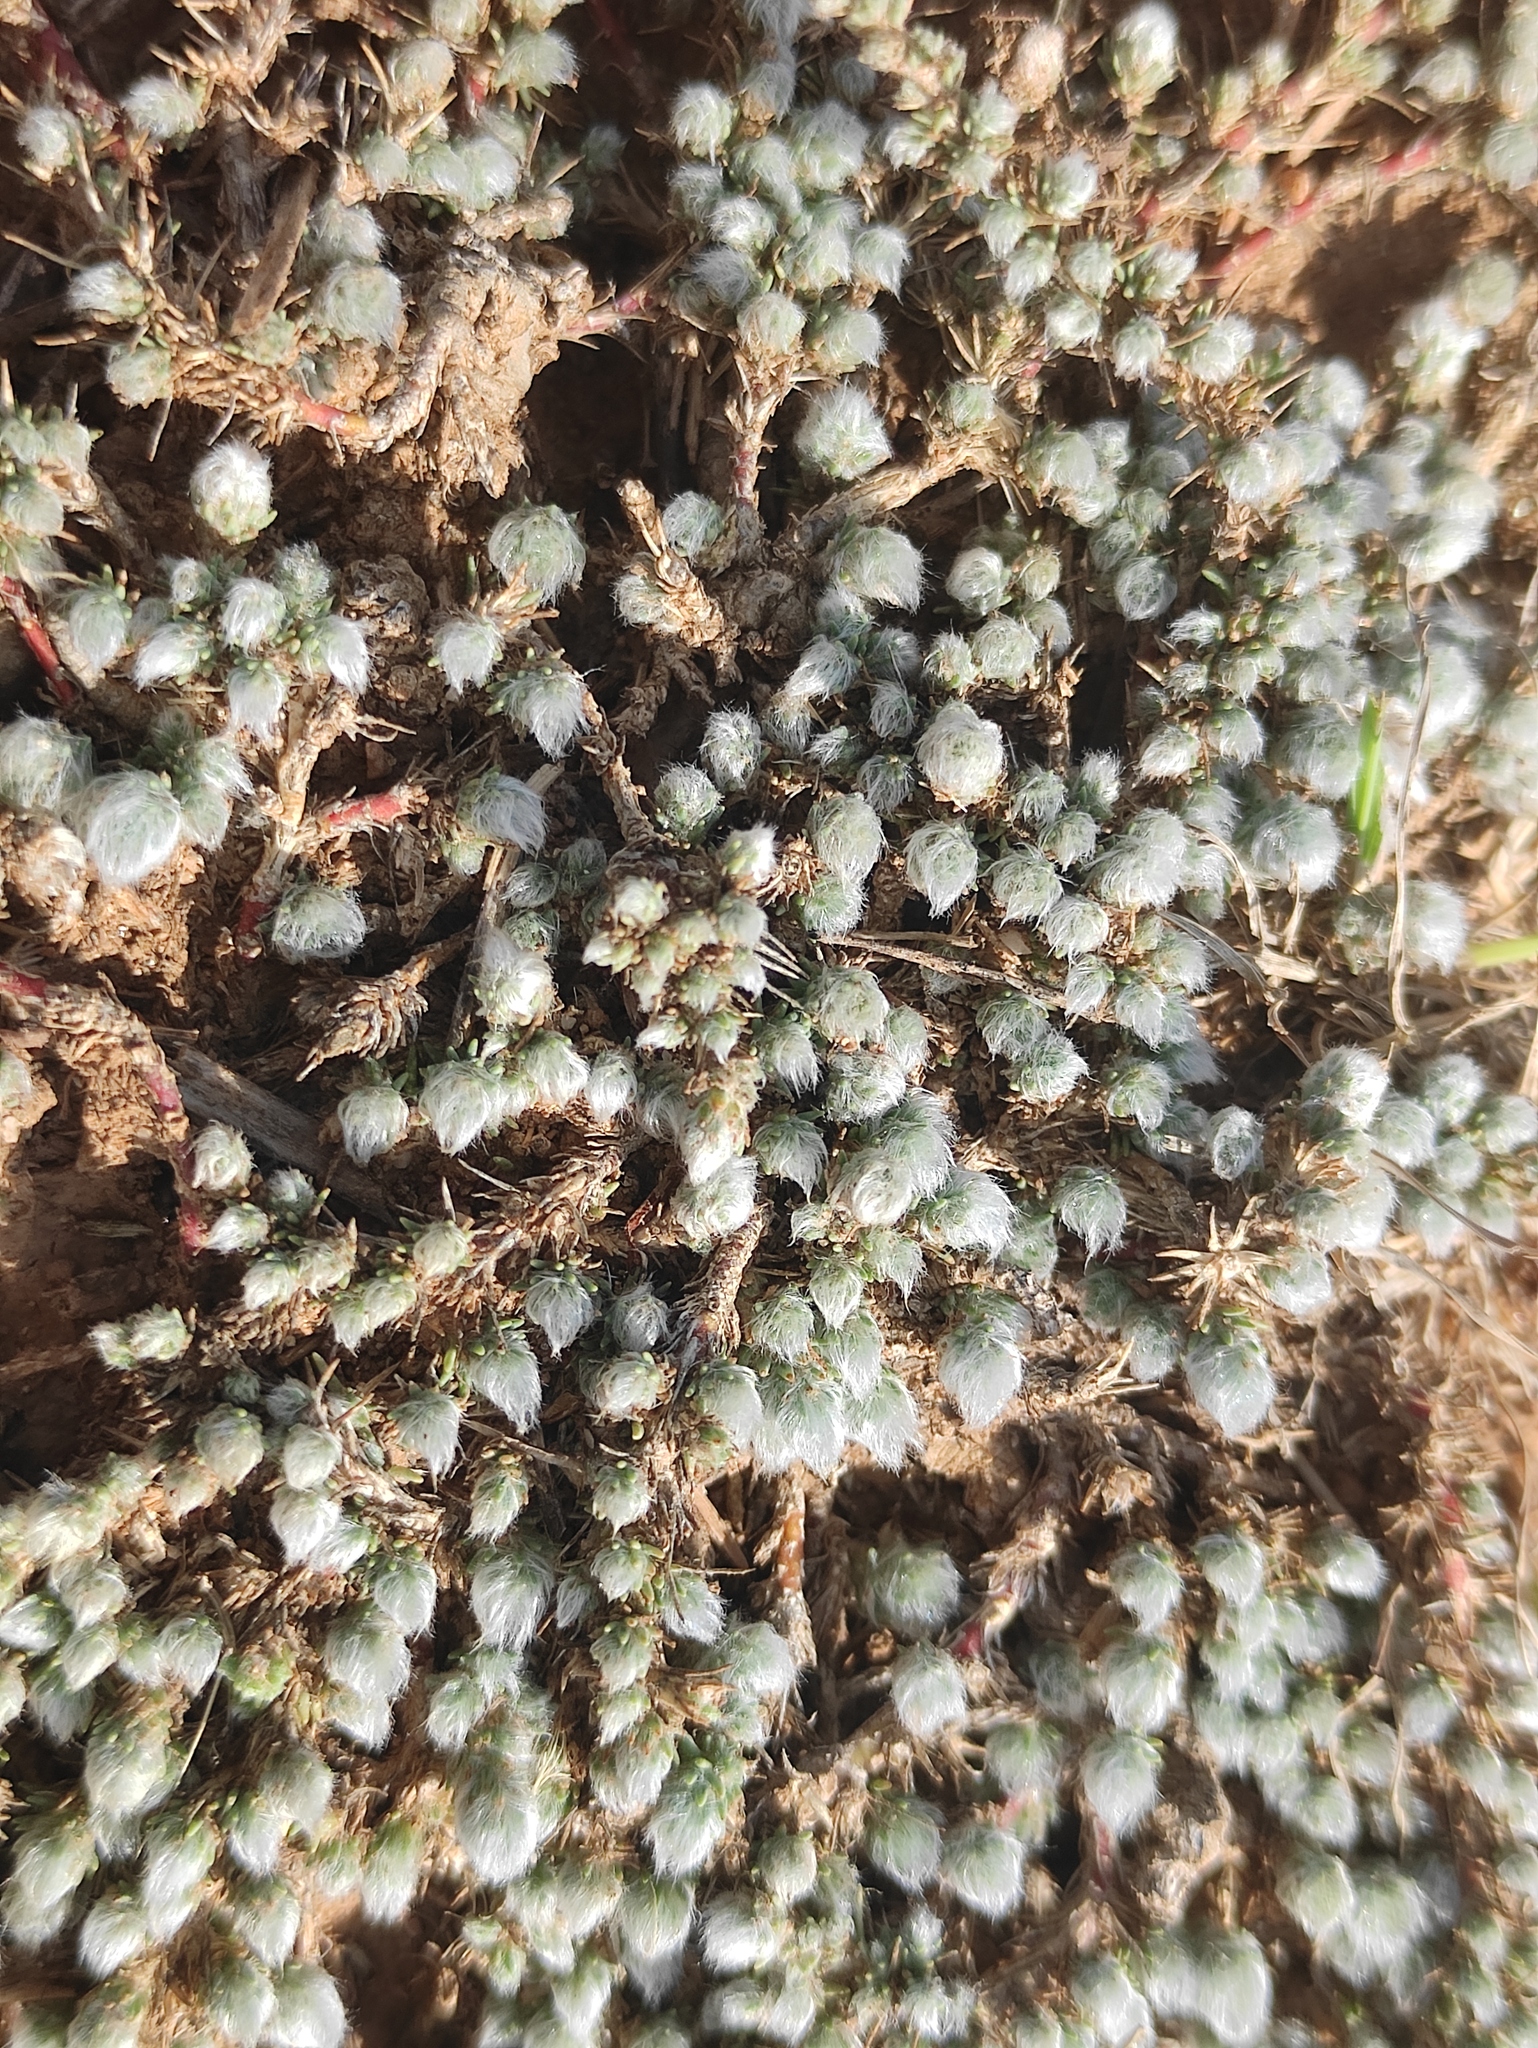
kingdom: Plantae
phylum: Tracheophyta
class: Magnoliopsida
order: Caryophyllales
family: Amaranthaceae
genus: Camphorosma
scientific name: Camphorosma monspeliaca
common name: Camphorfume
